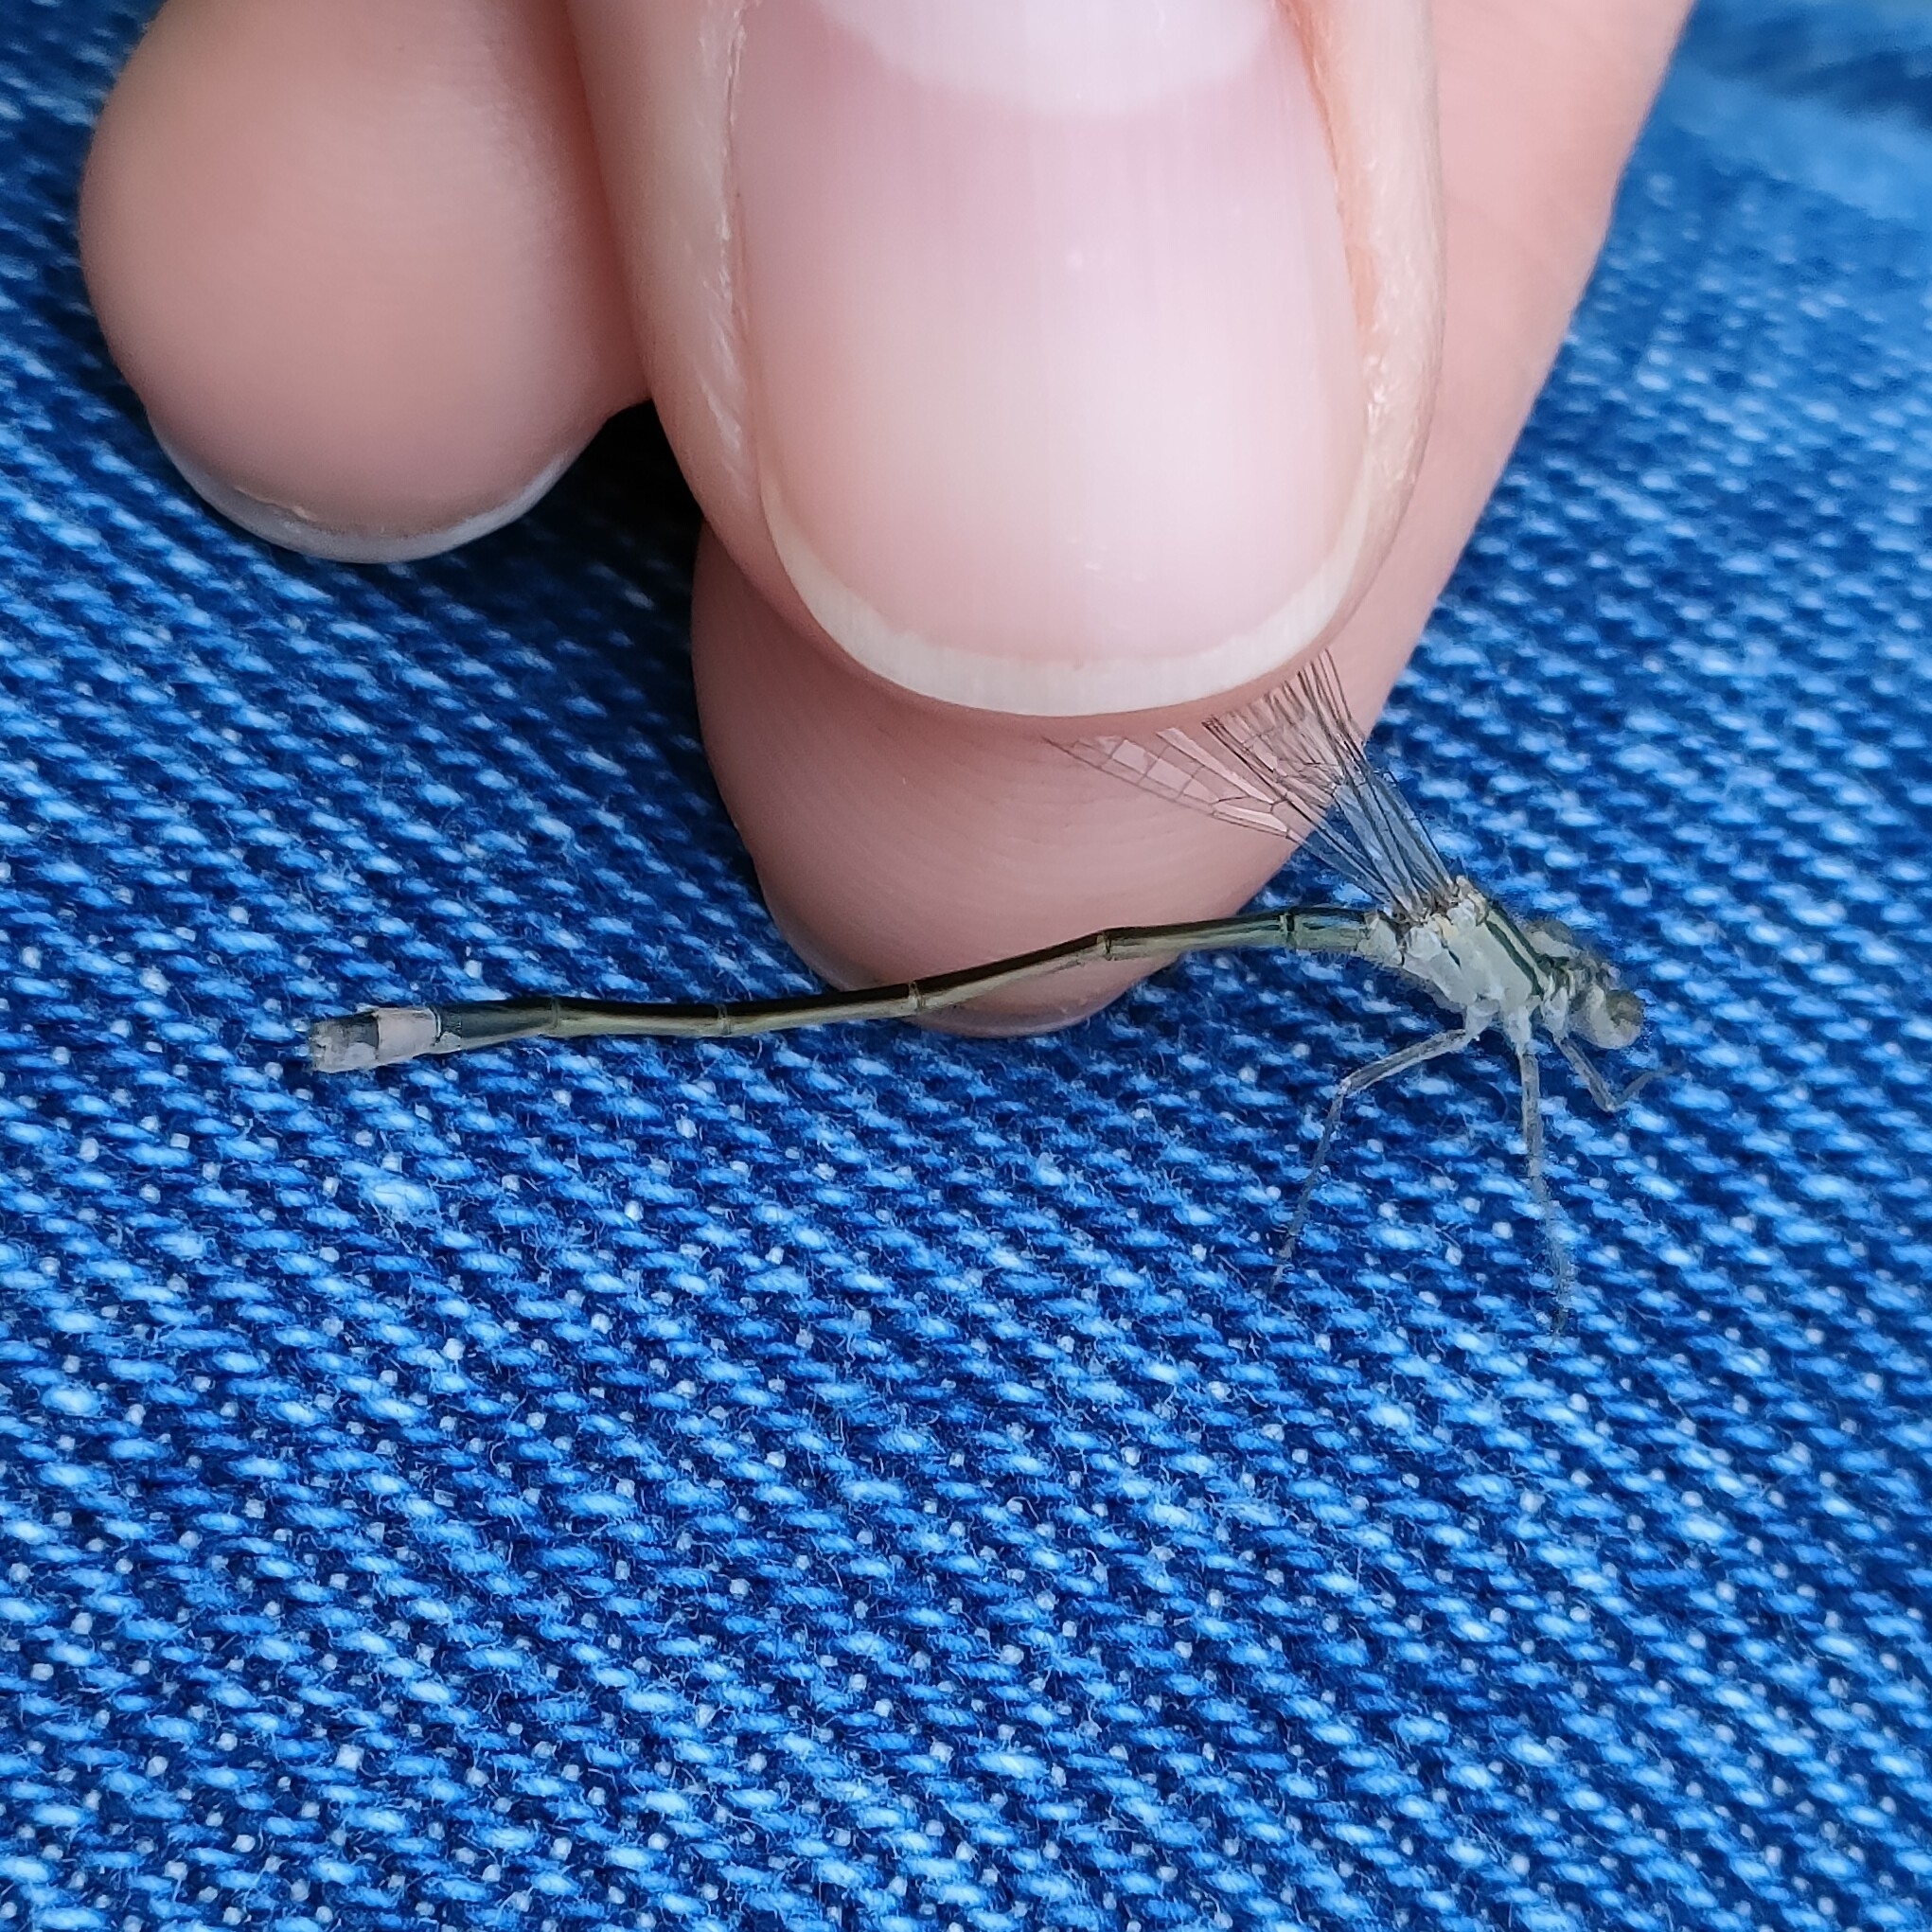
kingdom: Animalia
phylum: Arthropoda
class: Insecta
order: Odonata
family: Coenagrionidae
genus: Ischnura
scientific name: Ischnura elegans
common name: Blue-tailed damselfly
